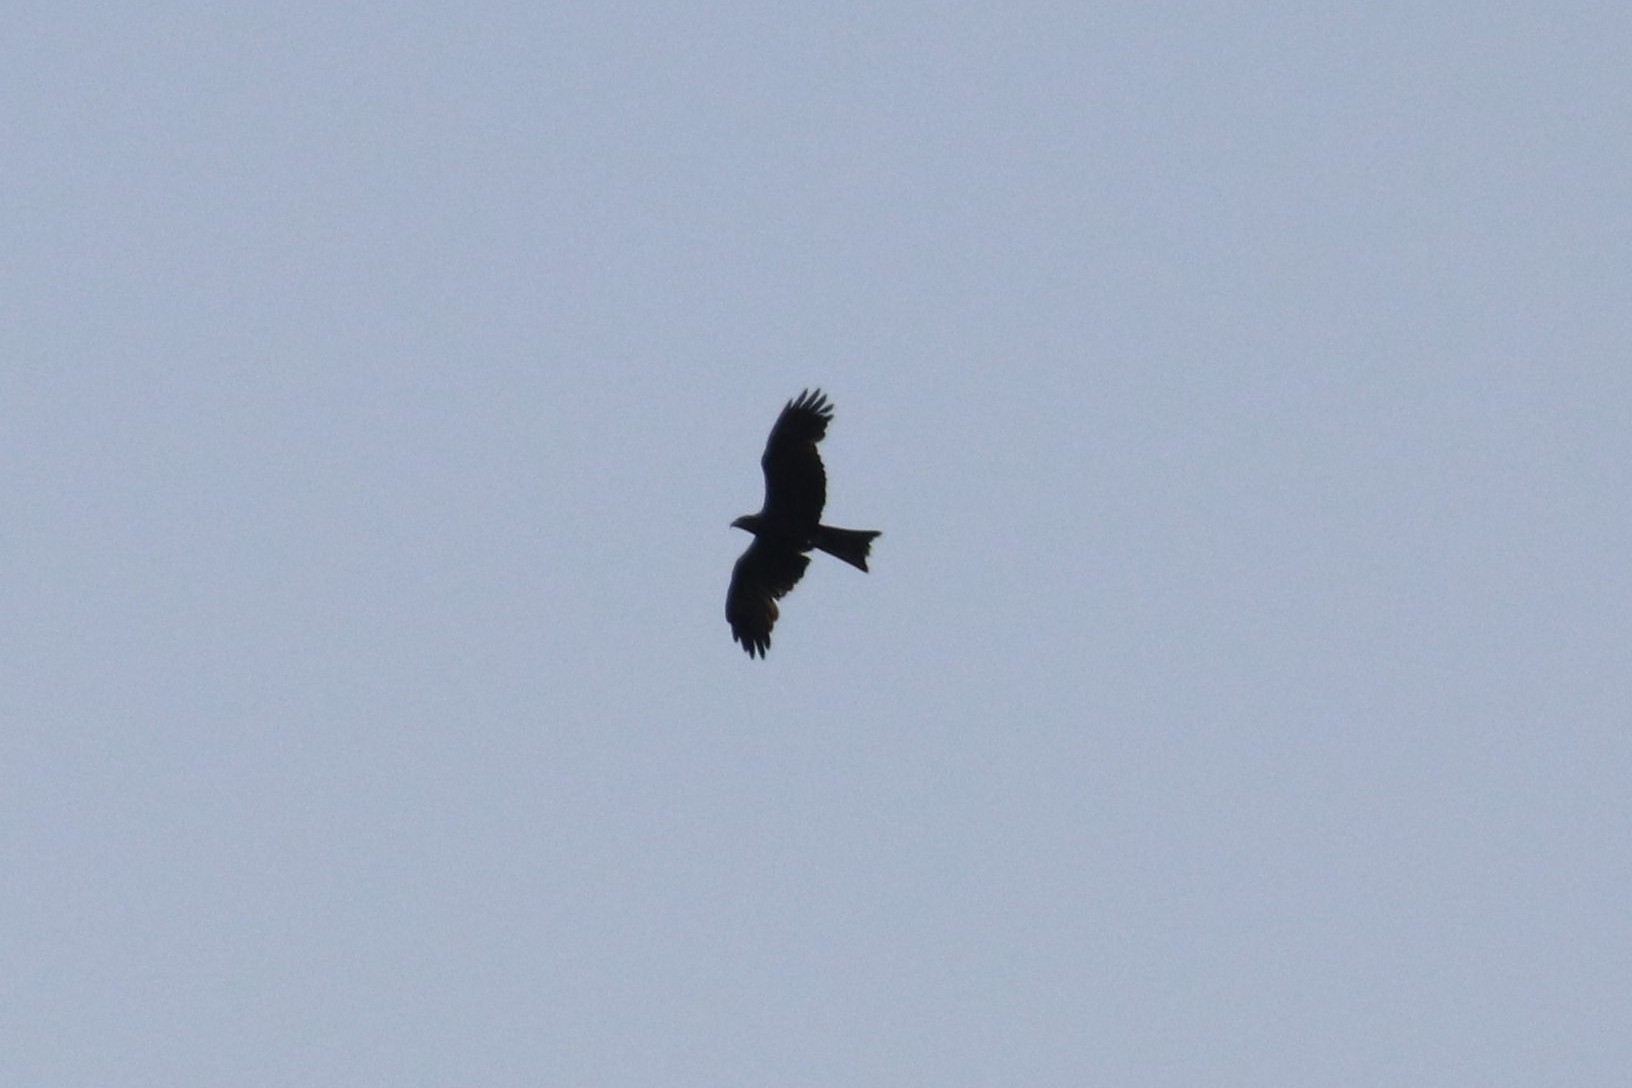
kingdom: Animalia
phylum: Chordata
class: Aves
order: Accipitriformes
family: Accipitridae
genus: Milvus
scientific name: Milvus migrans
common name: Black kite
